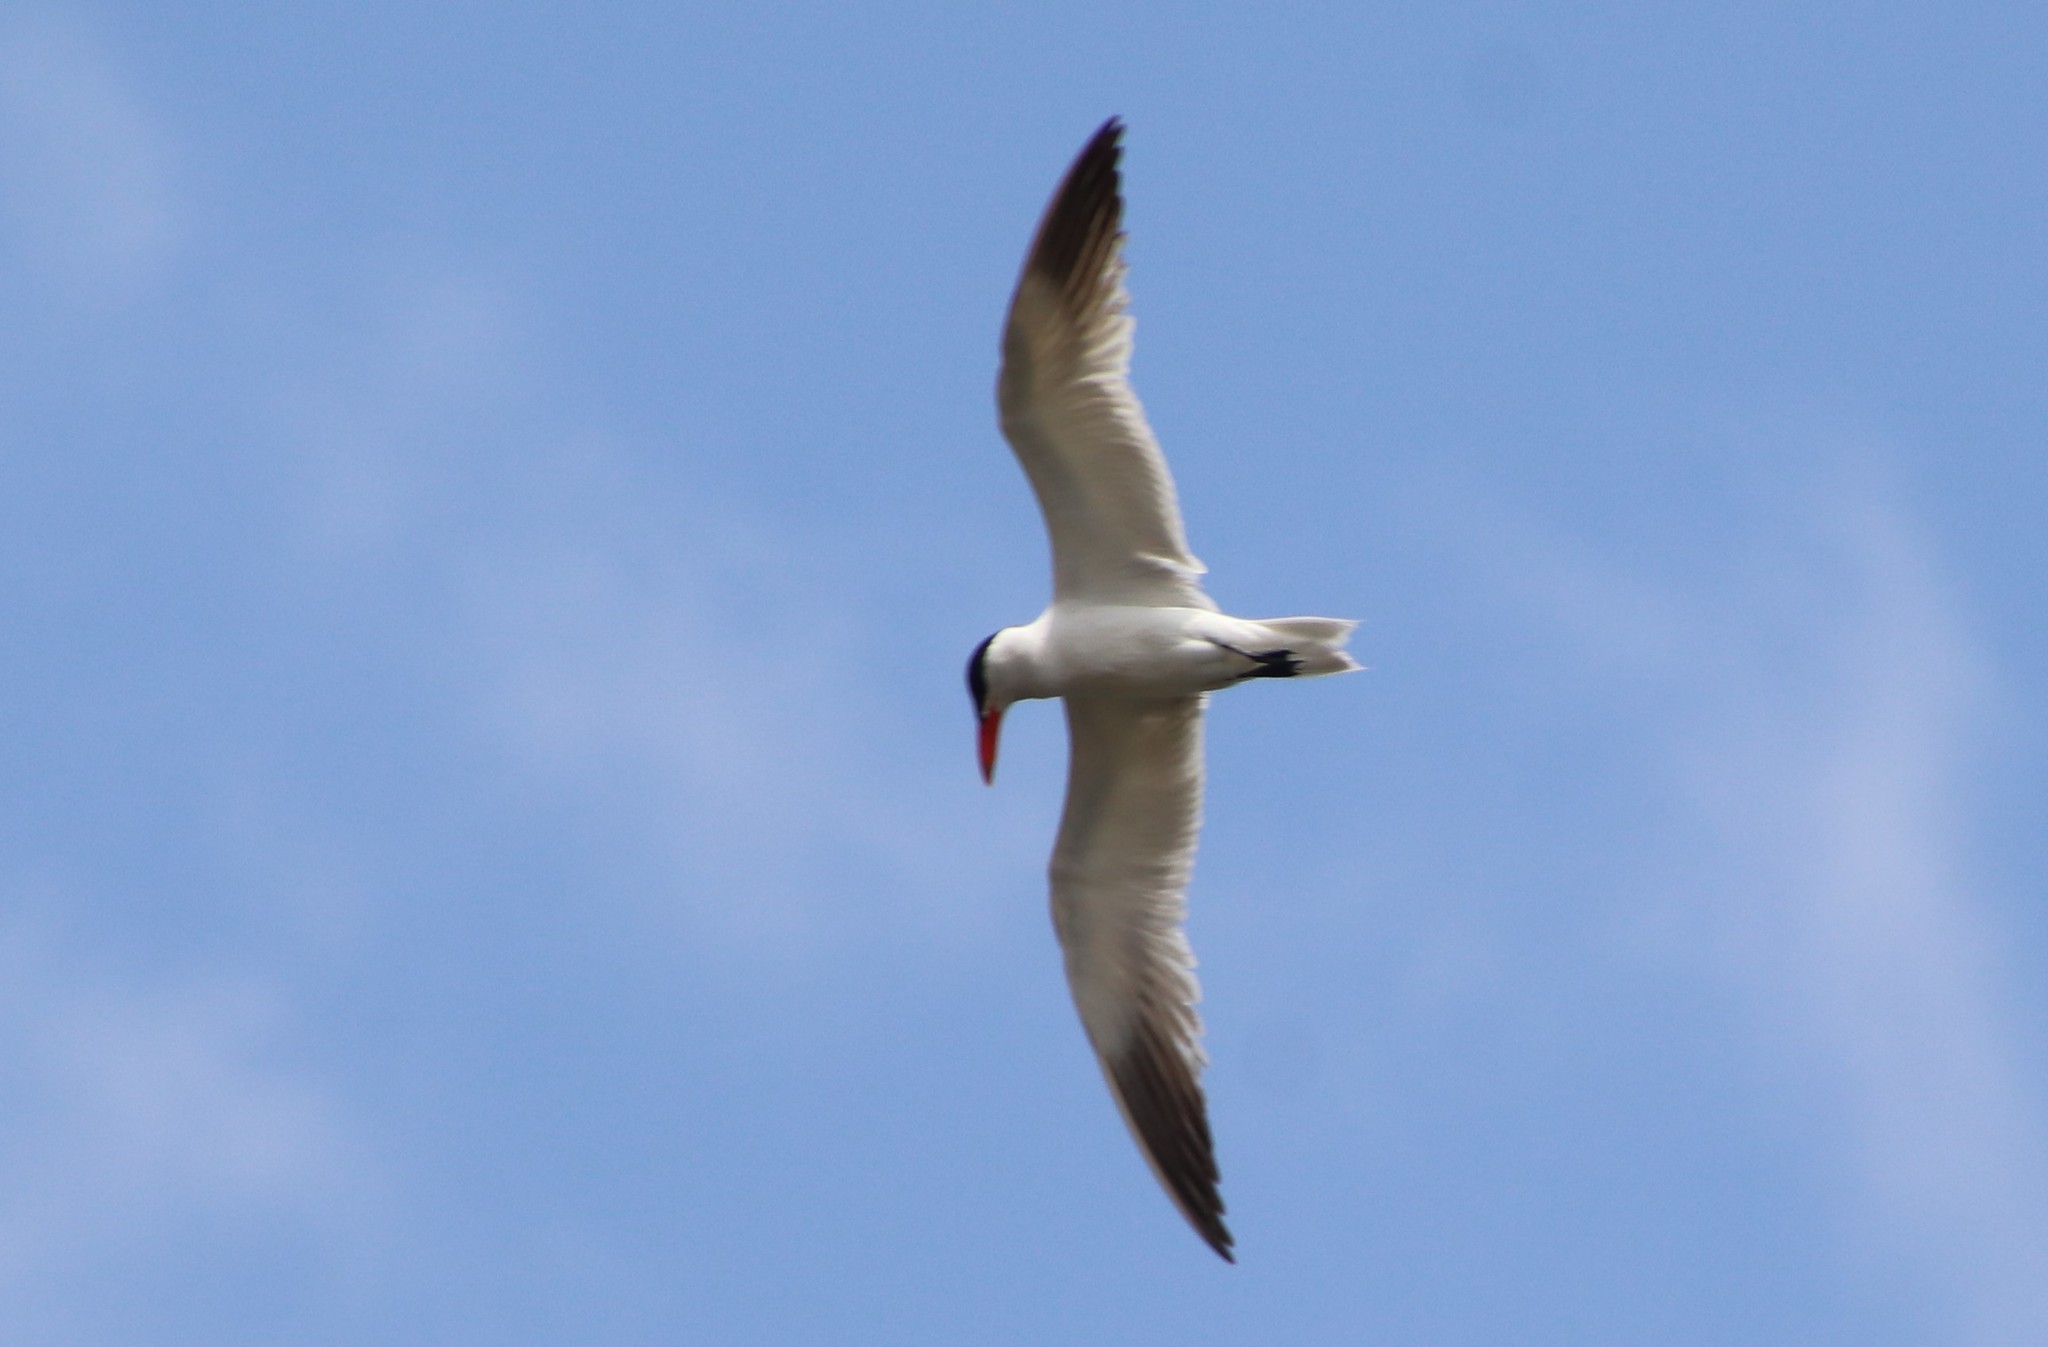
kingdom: Animalia
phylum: Chordata
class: Aves
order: Charadriiformes
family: Laridae
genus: Hydroprogne
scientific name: Hydroprogne caspia
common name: Caspian tern
